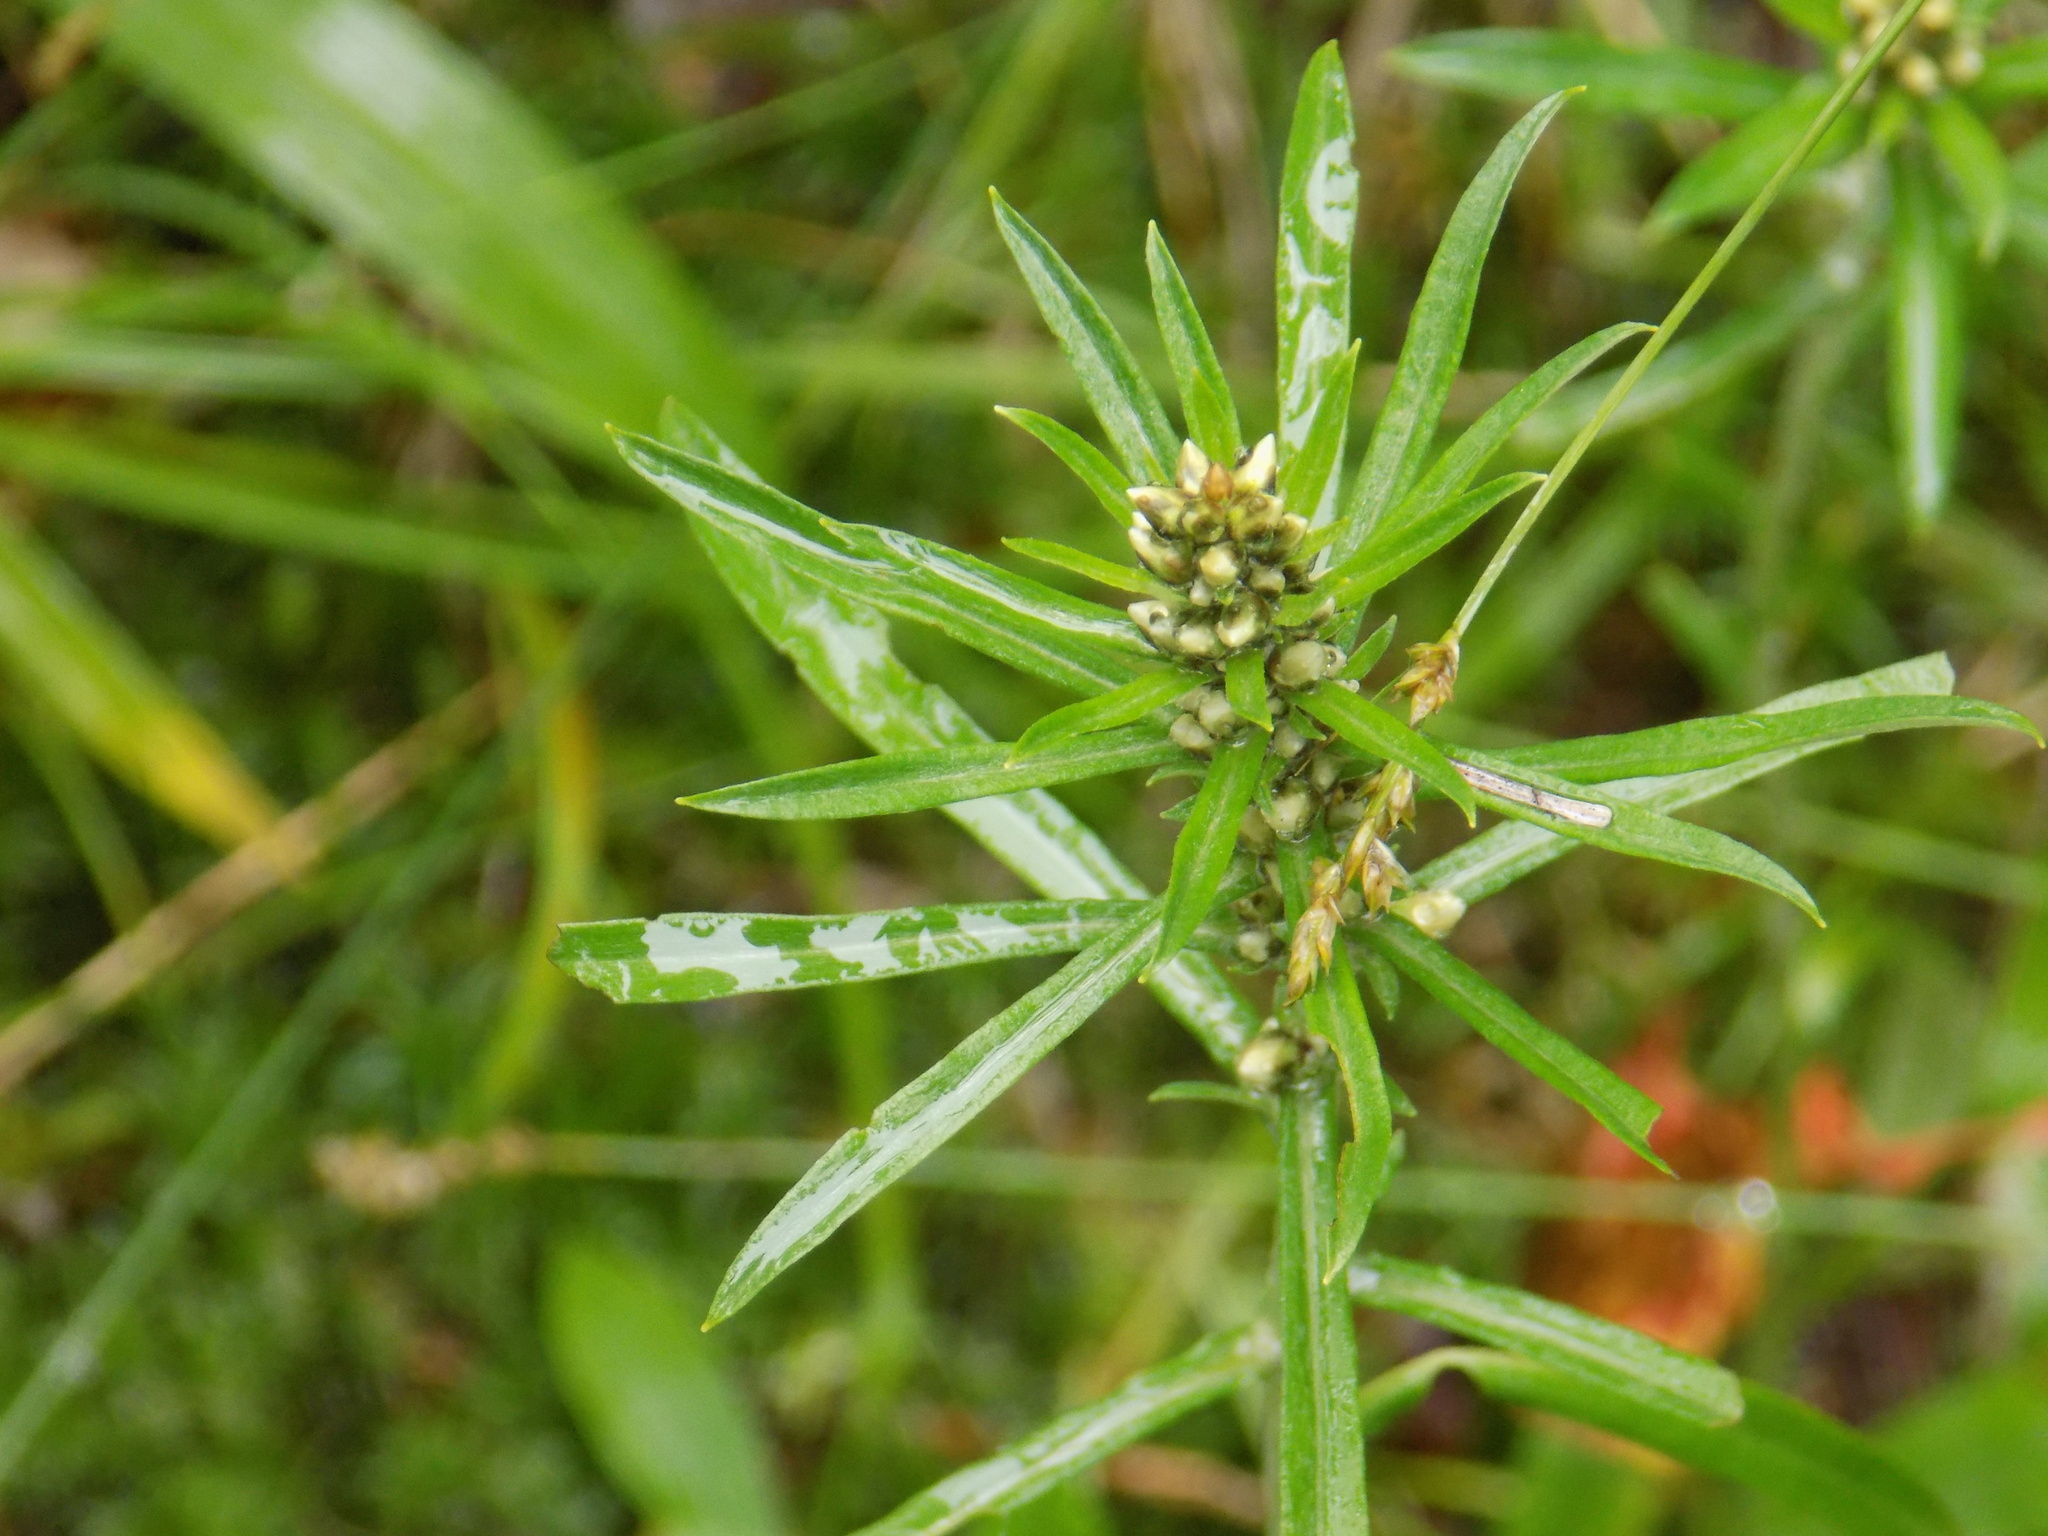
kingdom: Plantae
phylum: Tracheophyta
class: Magnoliopsida
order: Asterales
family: Asteraceae
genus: Omalotheca
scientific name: Omalotheca sylvatica
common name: Heath cudweed
